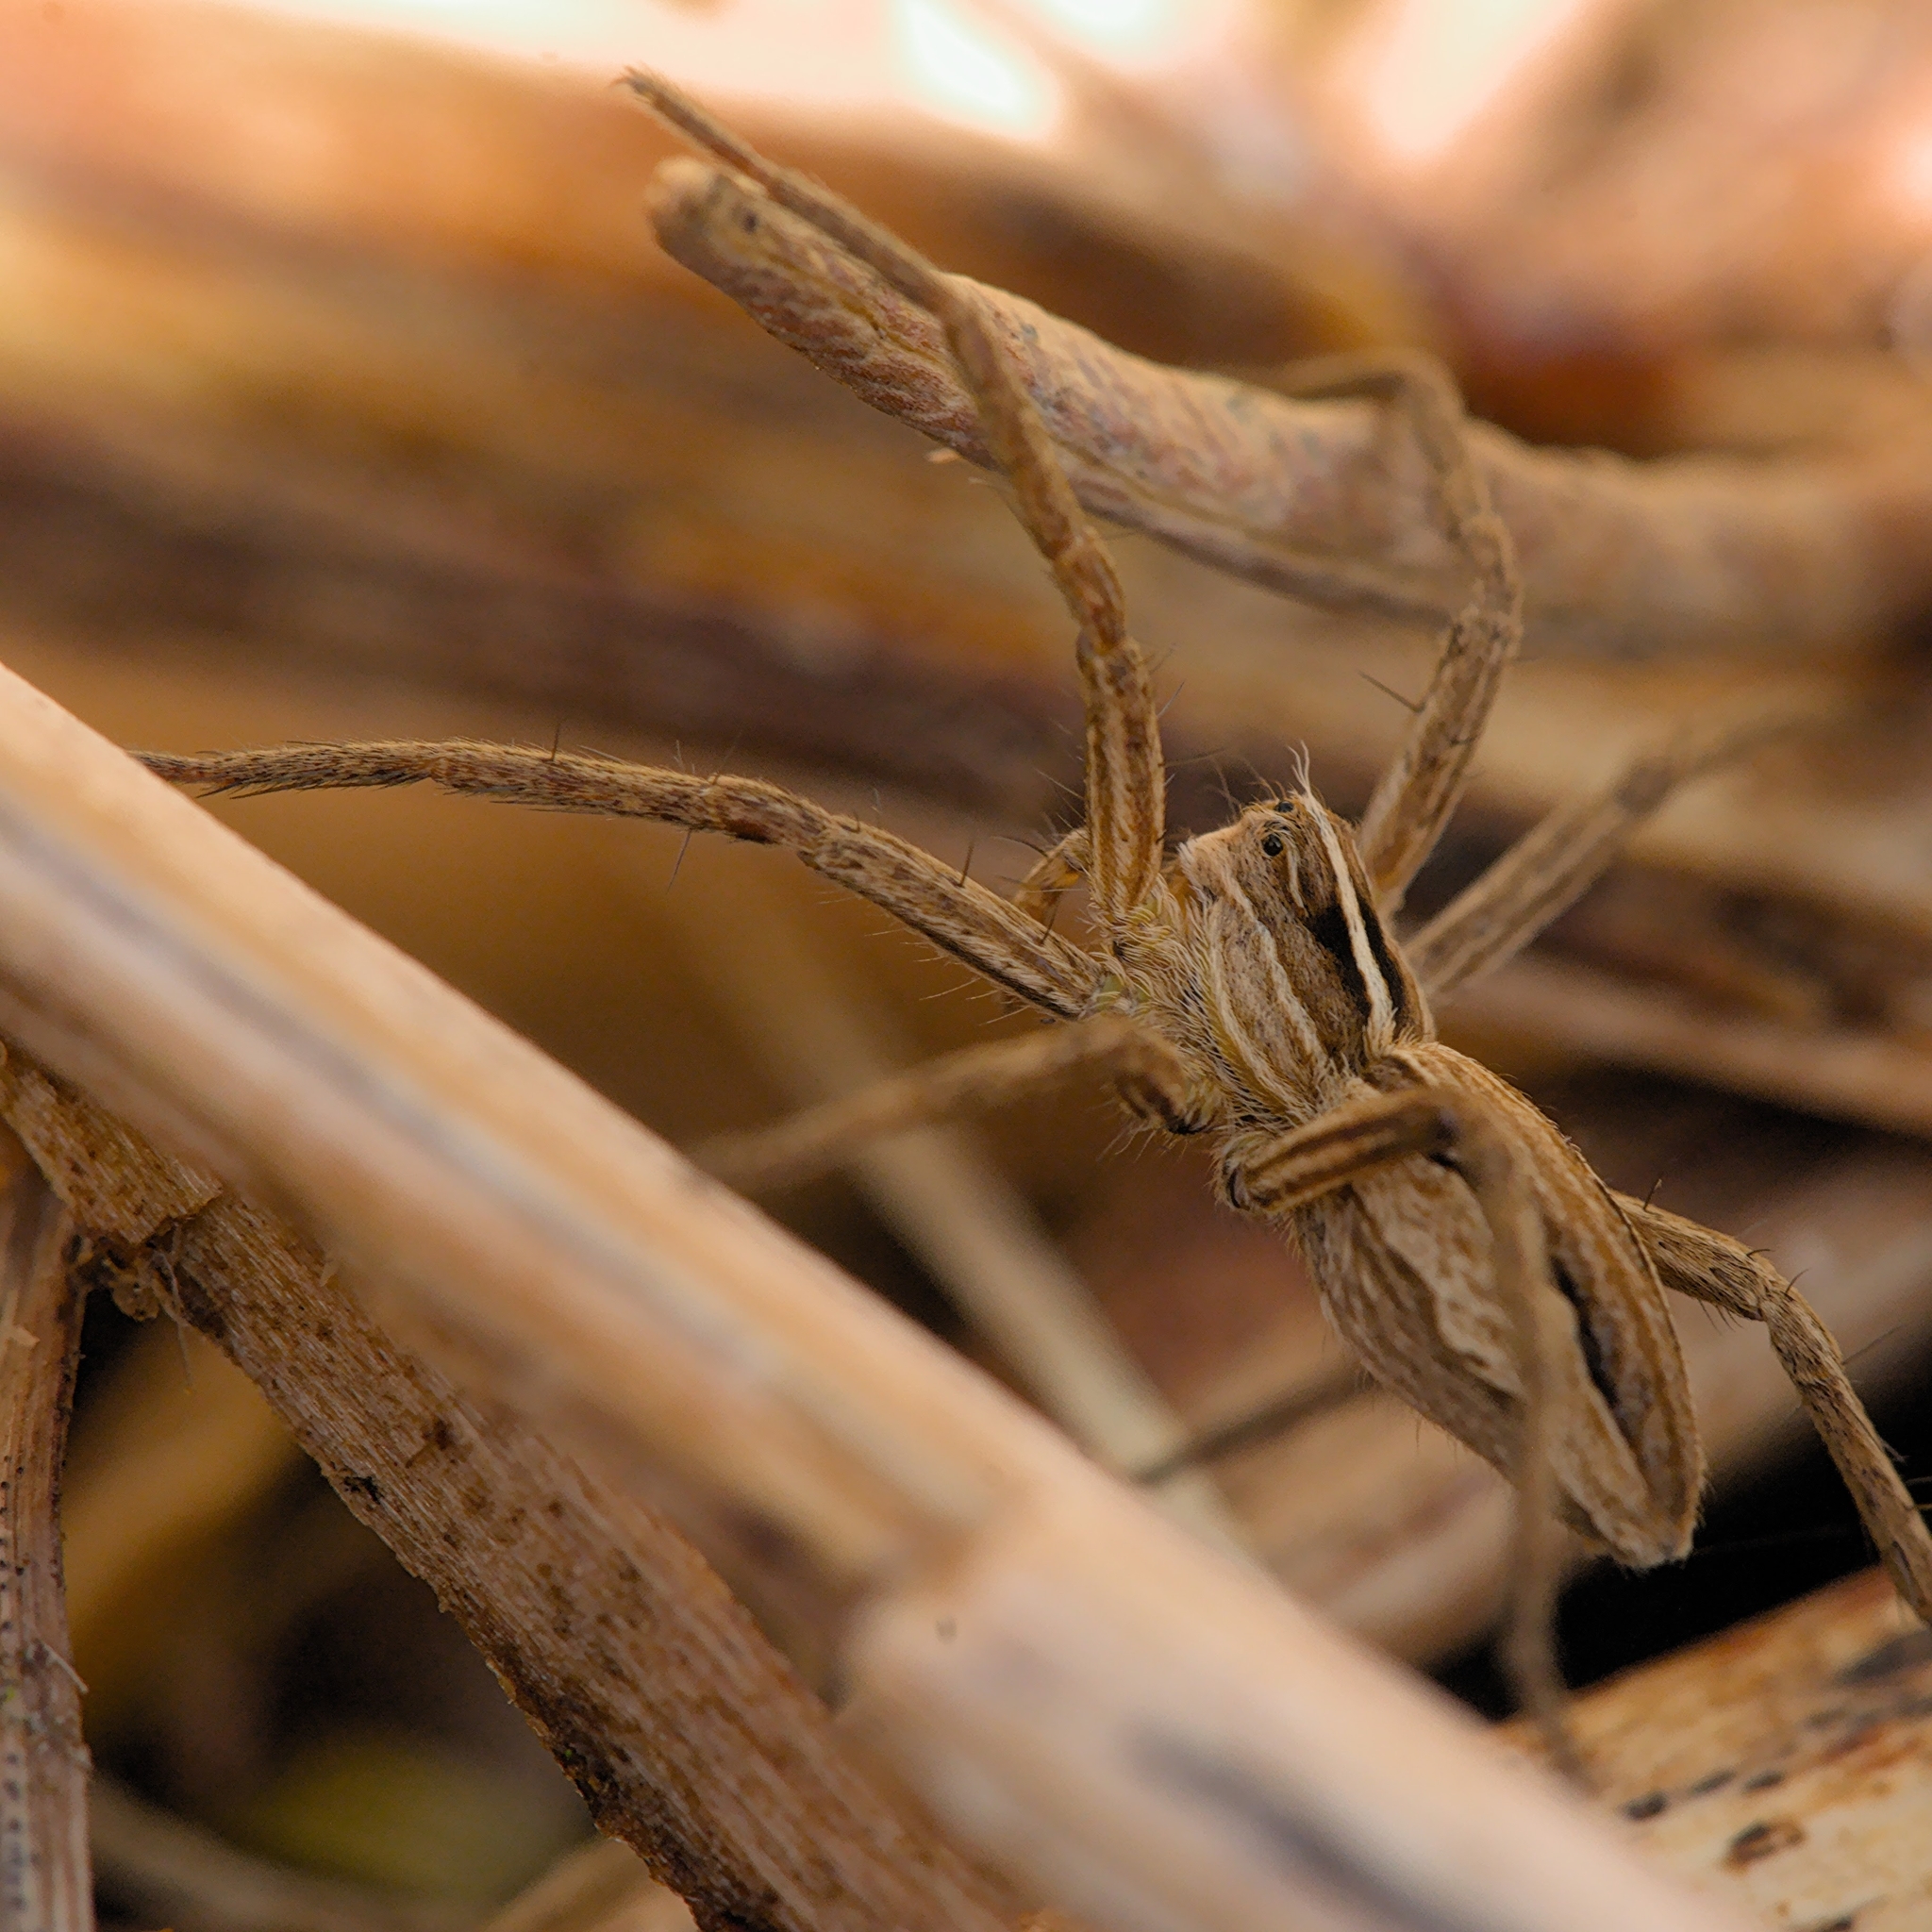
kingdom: Animalia
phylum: Arthropoda
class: Arachnida
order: Araneae
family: Pisauridae
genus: Pisaura
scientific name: Pisaura mirabilis
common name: Tent spider
